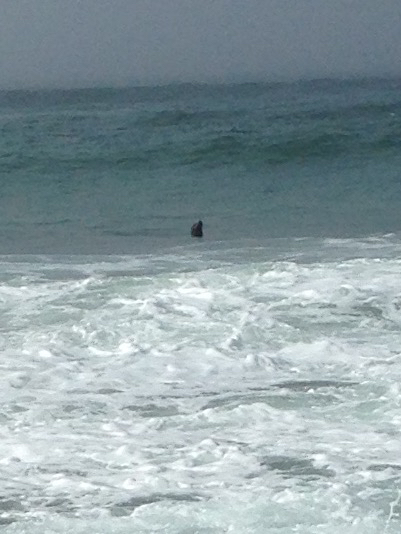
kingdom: Animalia
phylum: Chordata
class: Mammalia
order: Carnivora
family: Otariidae
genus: Zalophus
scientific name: Zalophus californianus
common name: California sea lion
